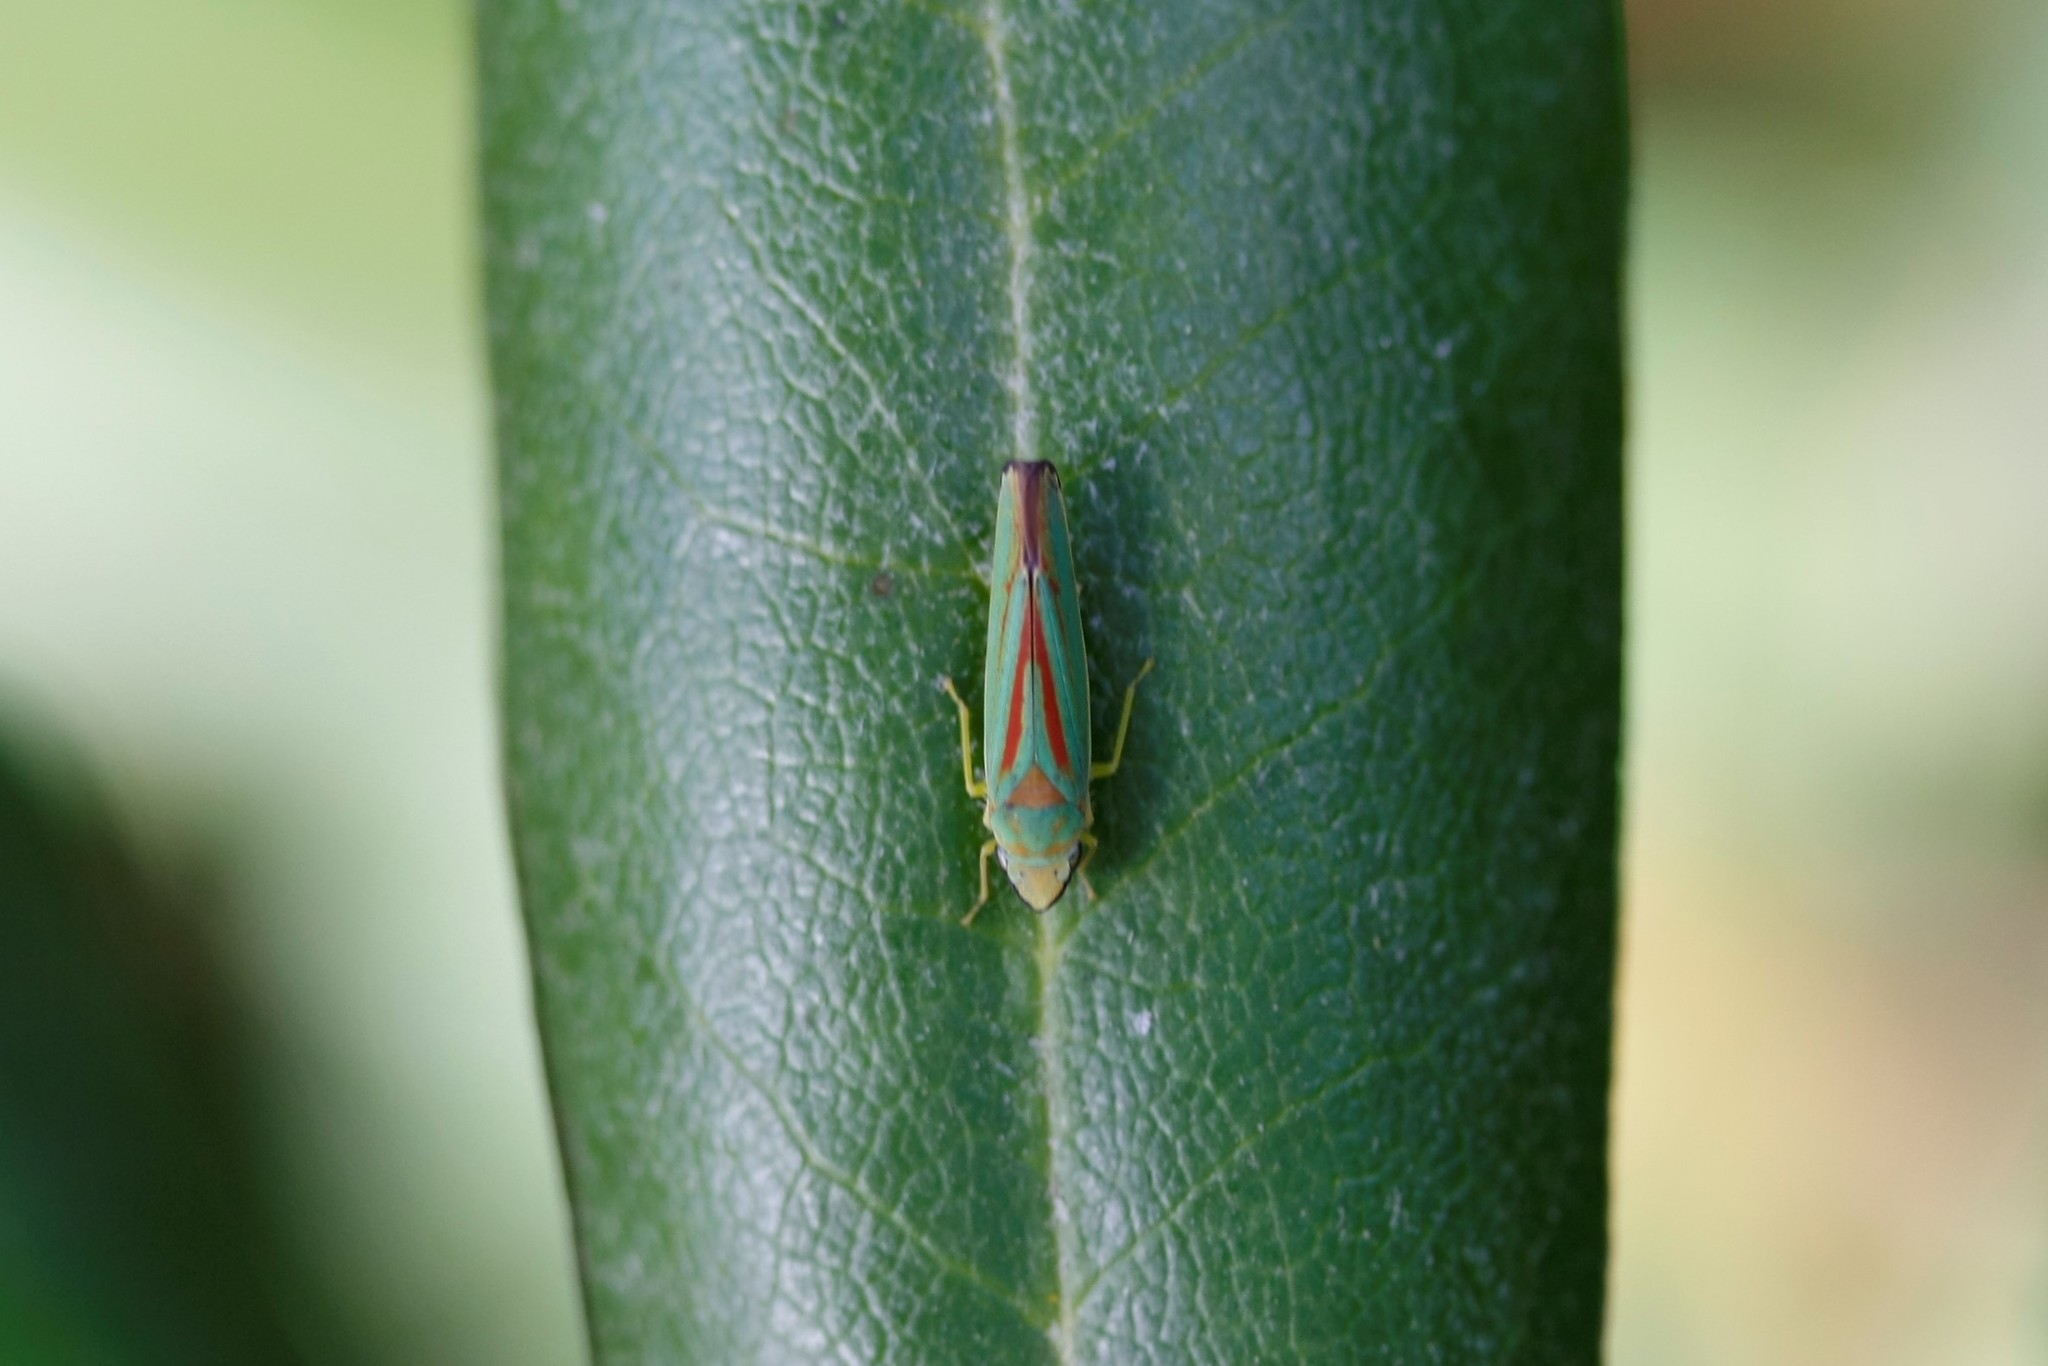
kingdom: Animalia
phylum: Arthropoda
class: Insecta
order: Hemiptera
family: Cicadellidae
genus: Graphocephala
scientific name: Graphocephala fennahi
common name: Rhododendron leafhopper
